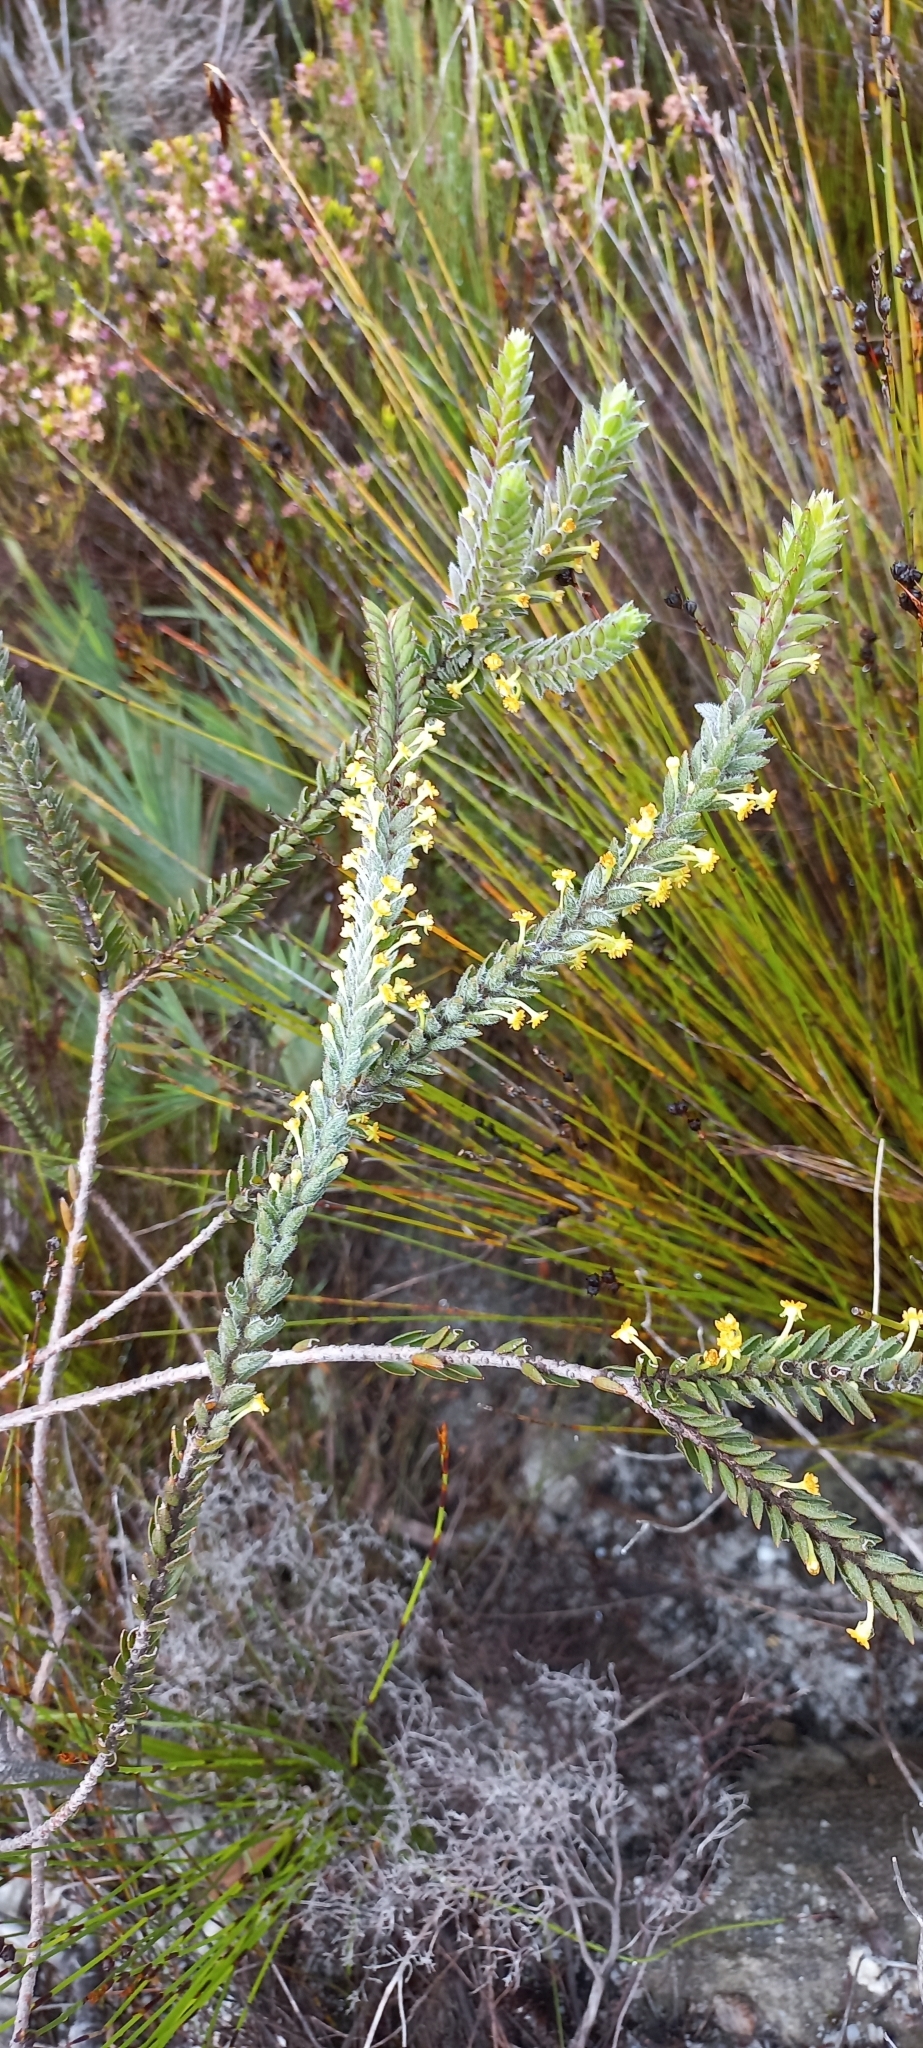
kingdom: Plantae
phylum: Tracheophyta
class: Magnoliopsida
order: Malvales
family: Thymelaeaceae
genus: Struthiola
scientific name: Struthiola tomentosa
